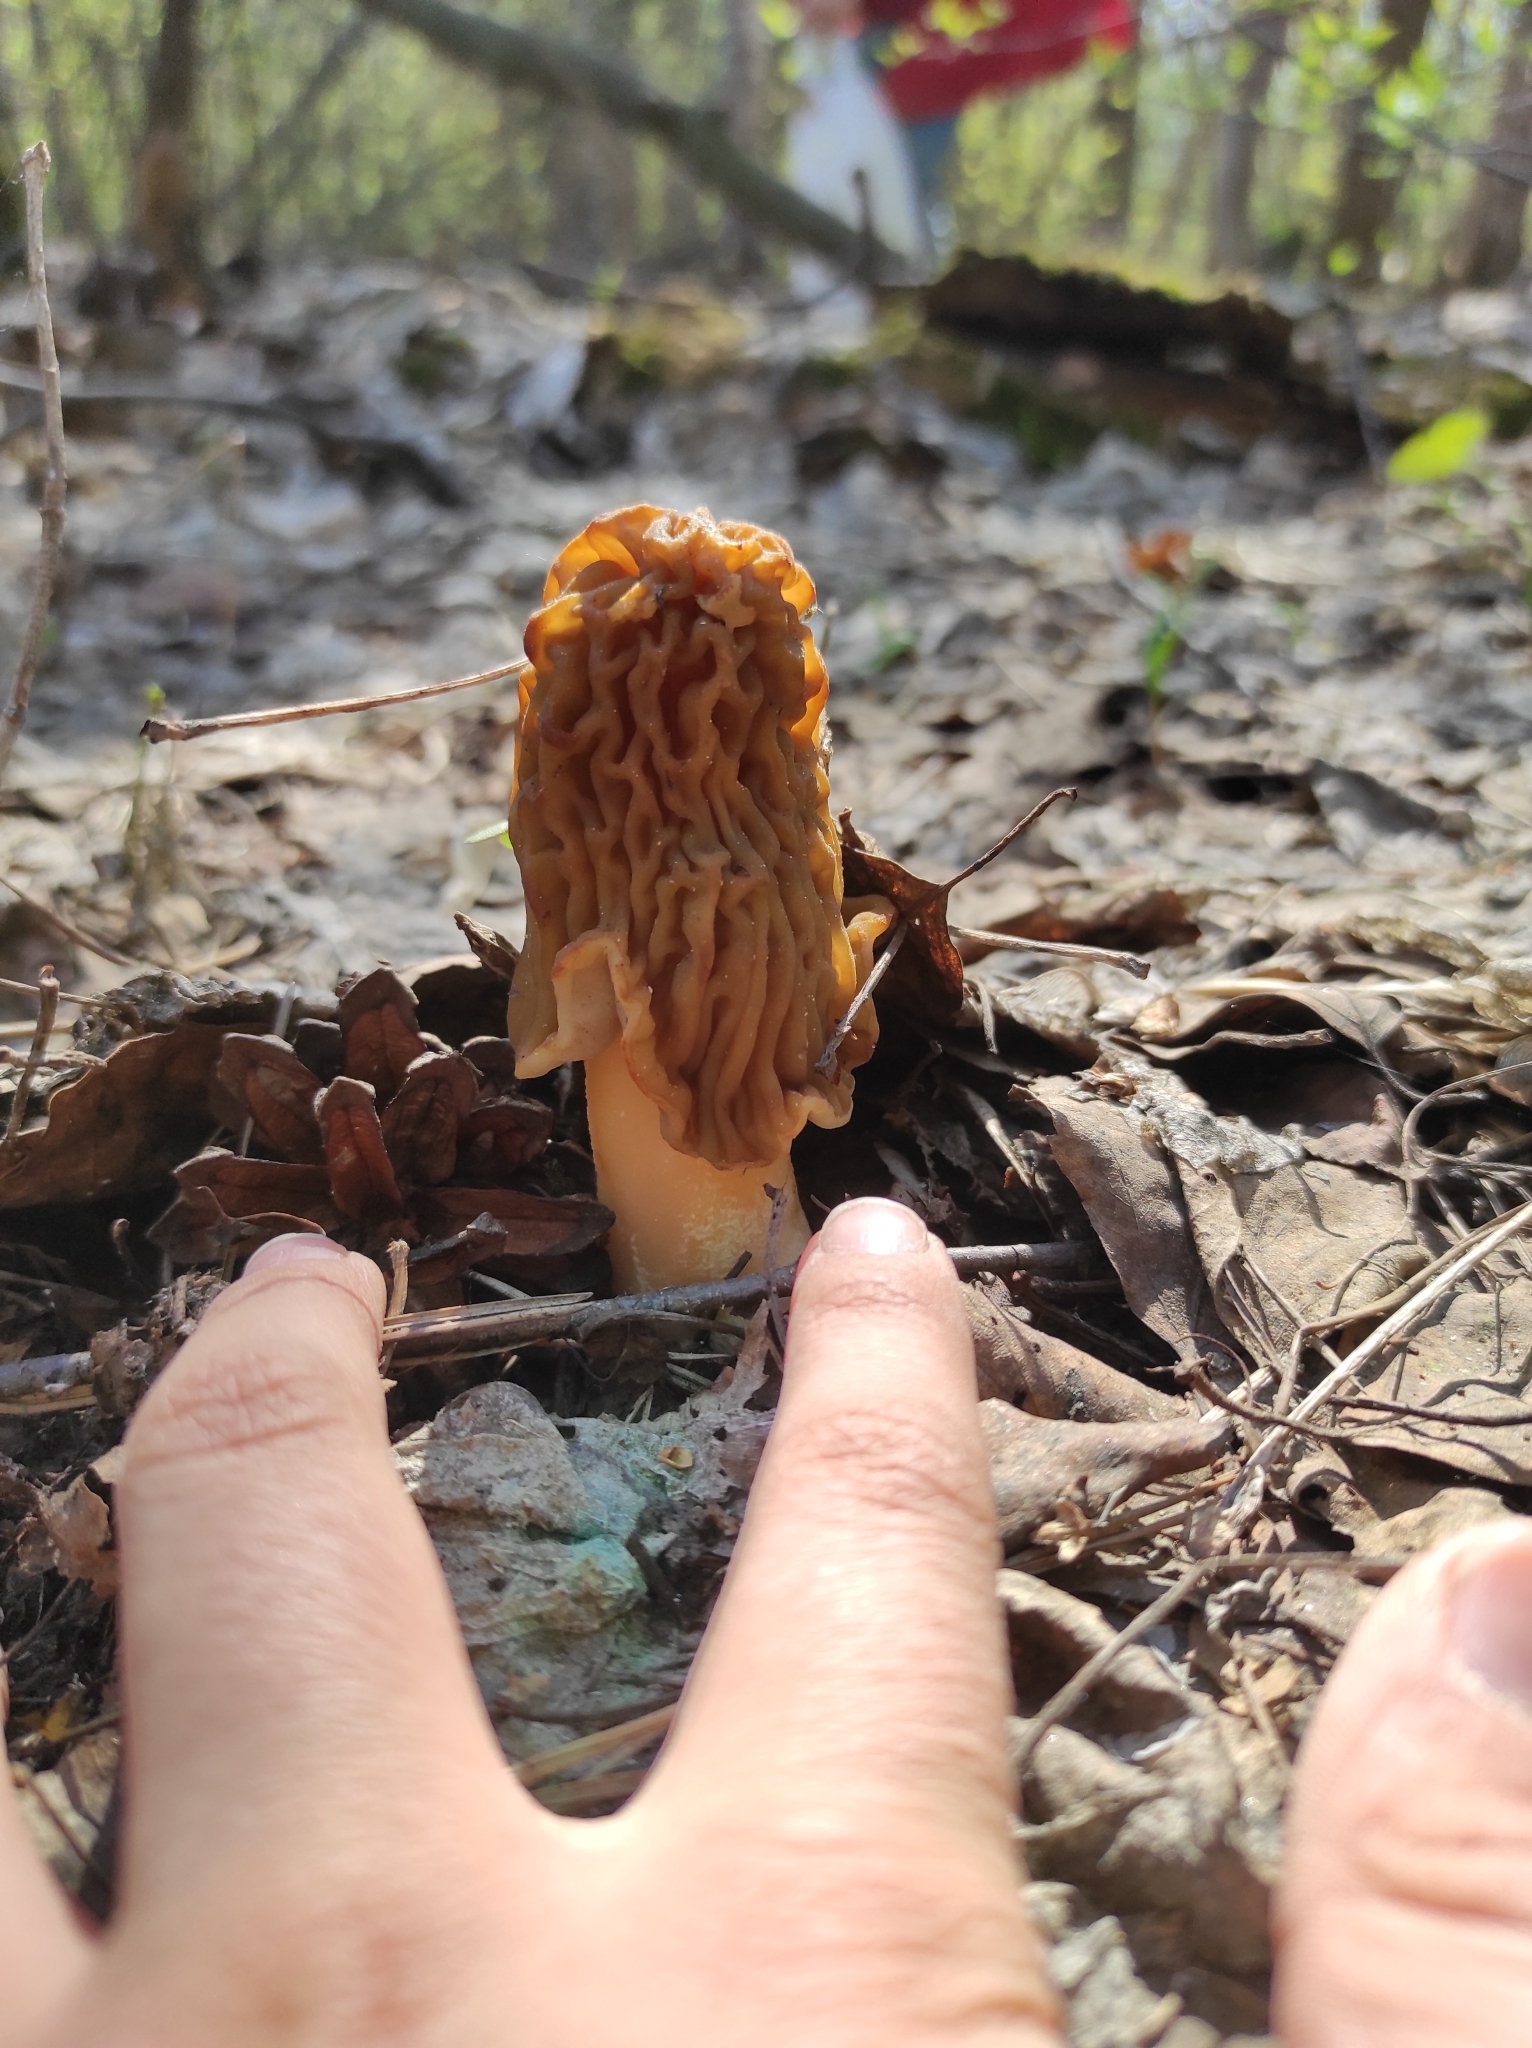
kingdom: Fungi
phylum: Ascomycota
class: Pezizomycetes
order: Pezizales
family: Morchellaceae
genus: Verpa
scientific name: Verpa bohemica
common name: Wrinkled thimble morel
